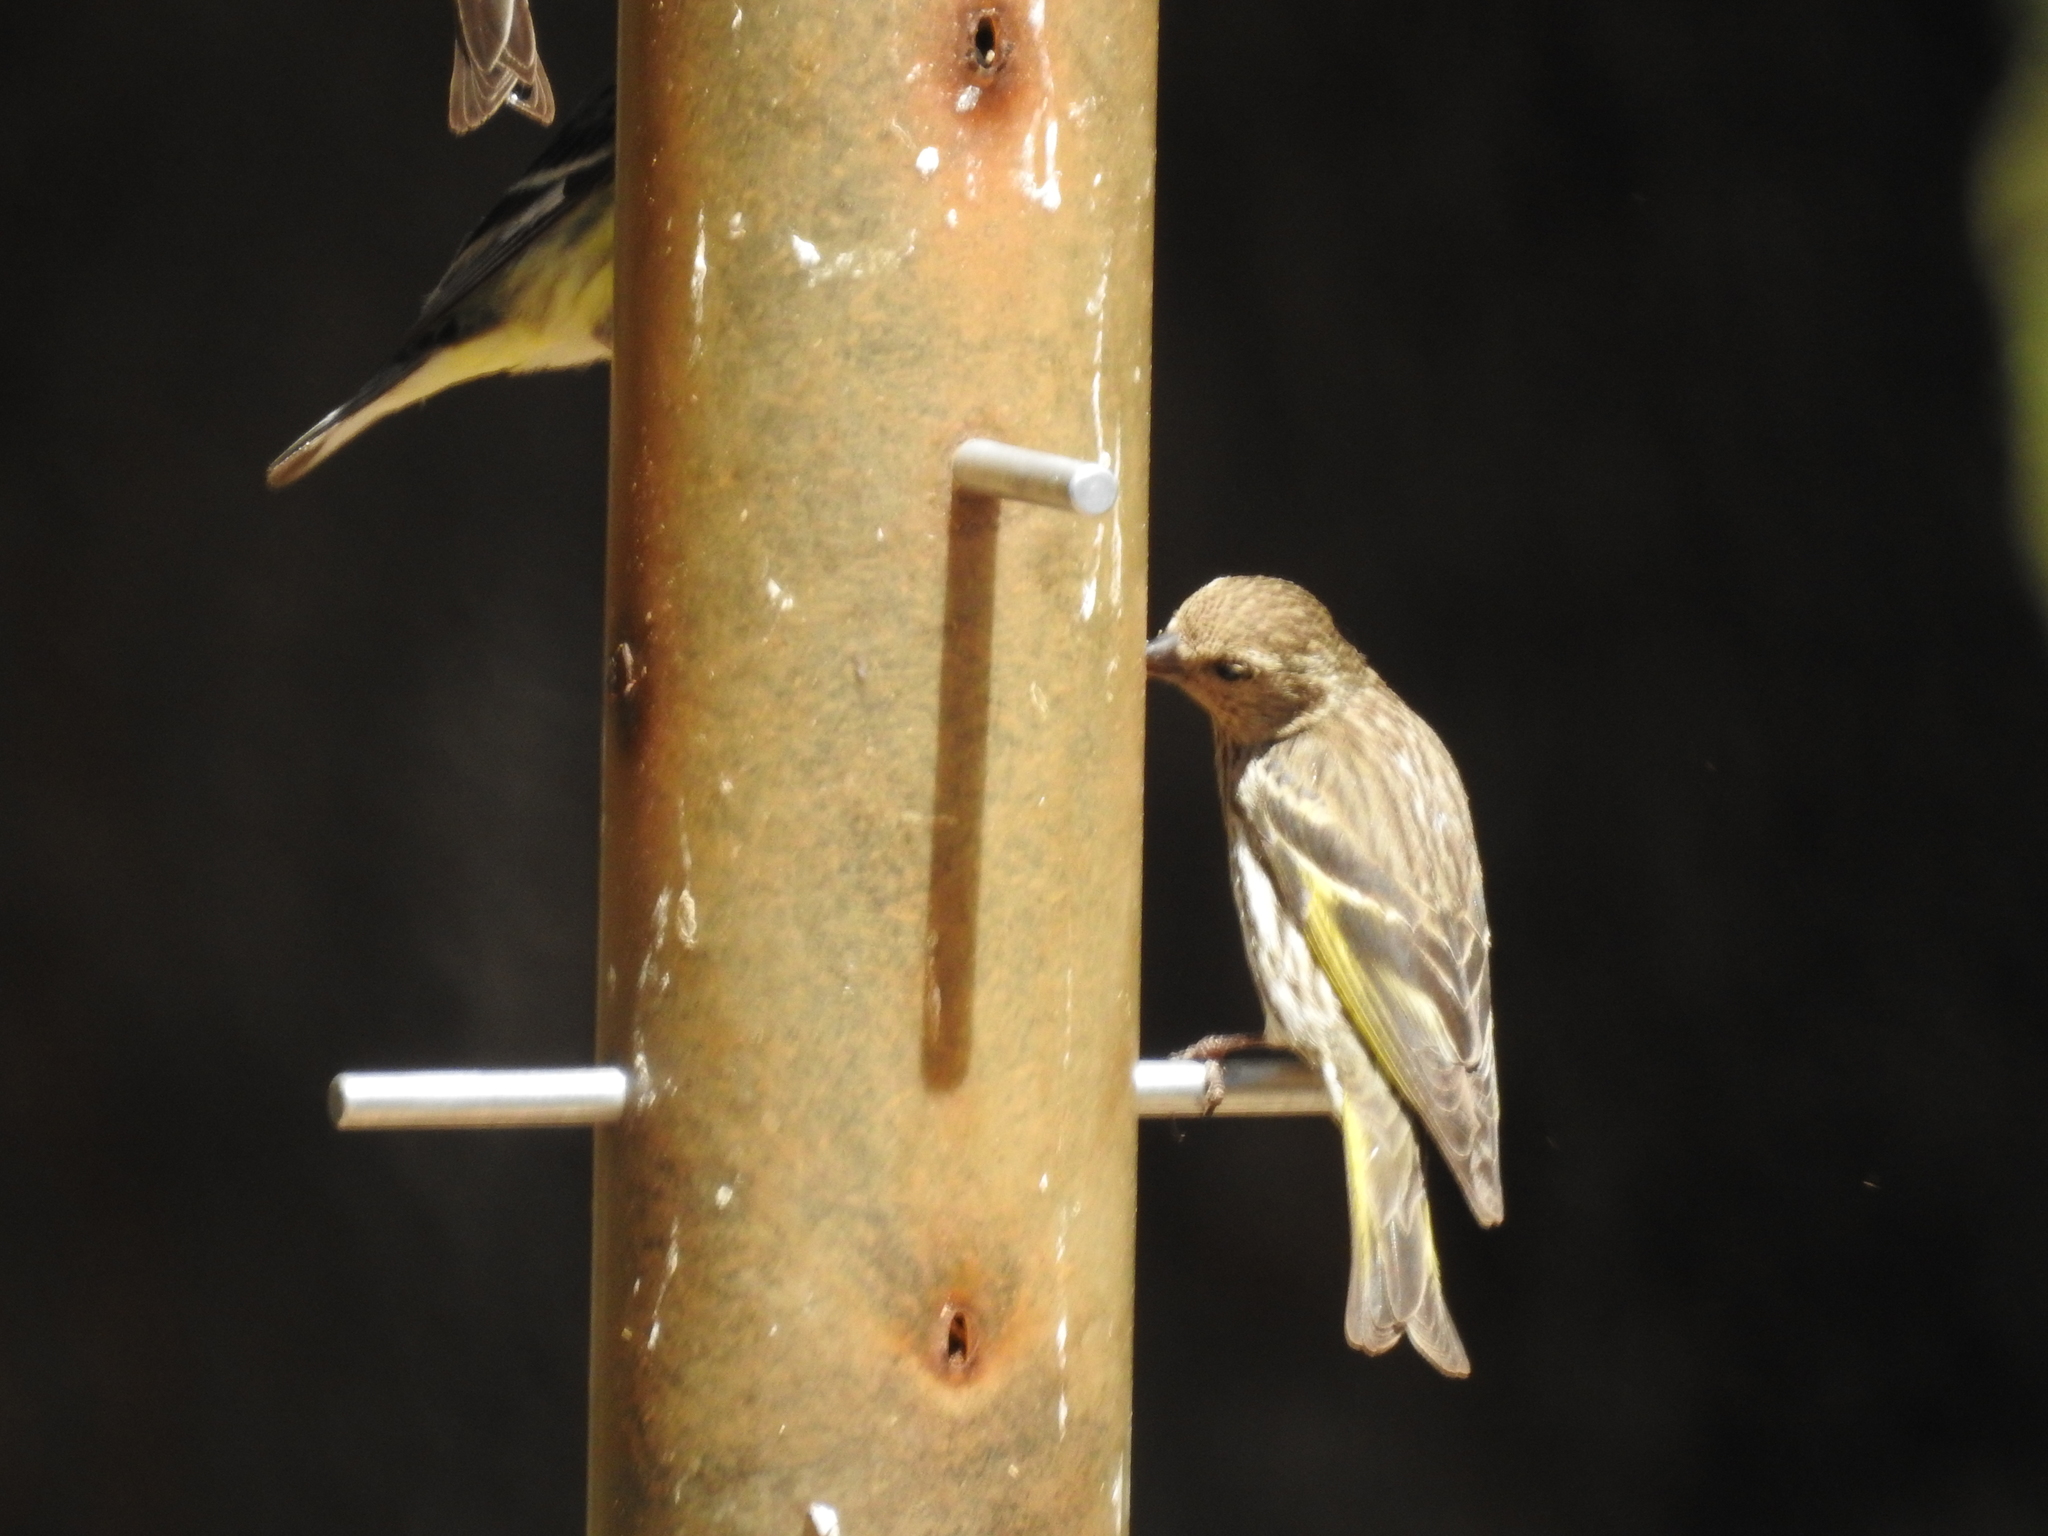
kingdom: Animalia
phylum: Chordata
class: Aves
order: Passeriformes
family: Fringillidae
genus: Spinus
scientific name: Spinus pinus
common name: Pine siskin
